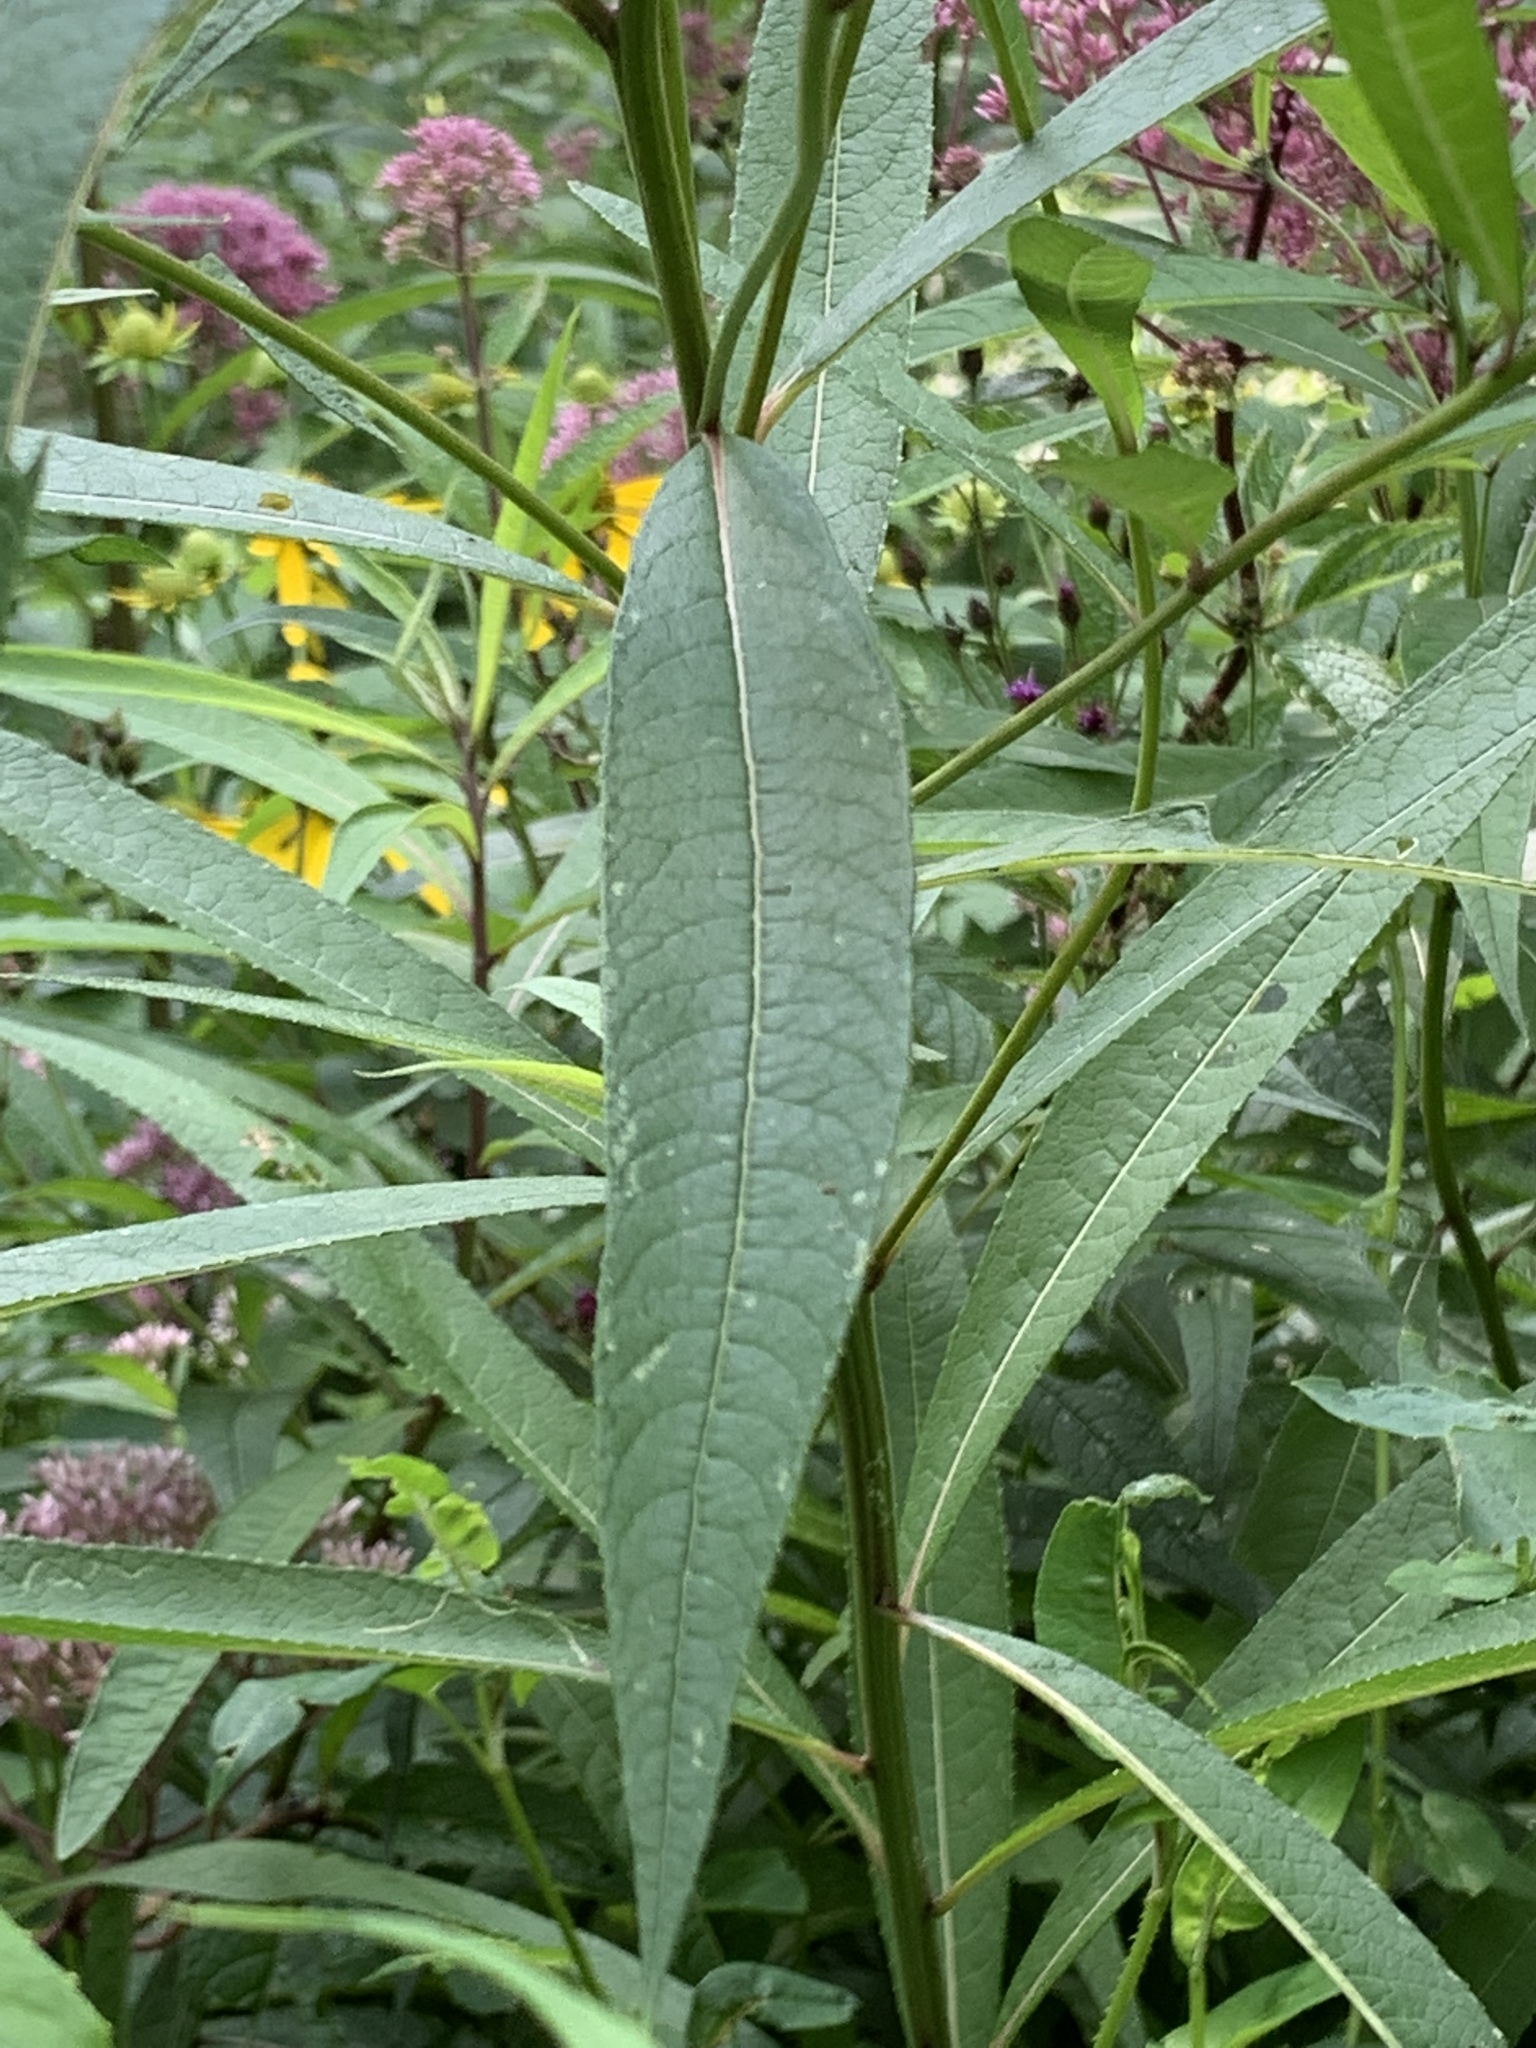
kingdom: Plantae
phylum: Tracheophyta
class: Magnoliopsida
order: Asterales
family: Asteraceae
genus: Vernonia
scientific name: Vernonia noveboracensis
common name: New york ironweed
